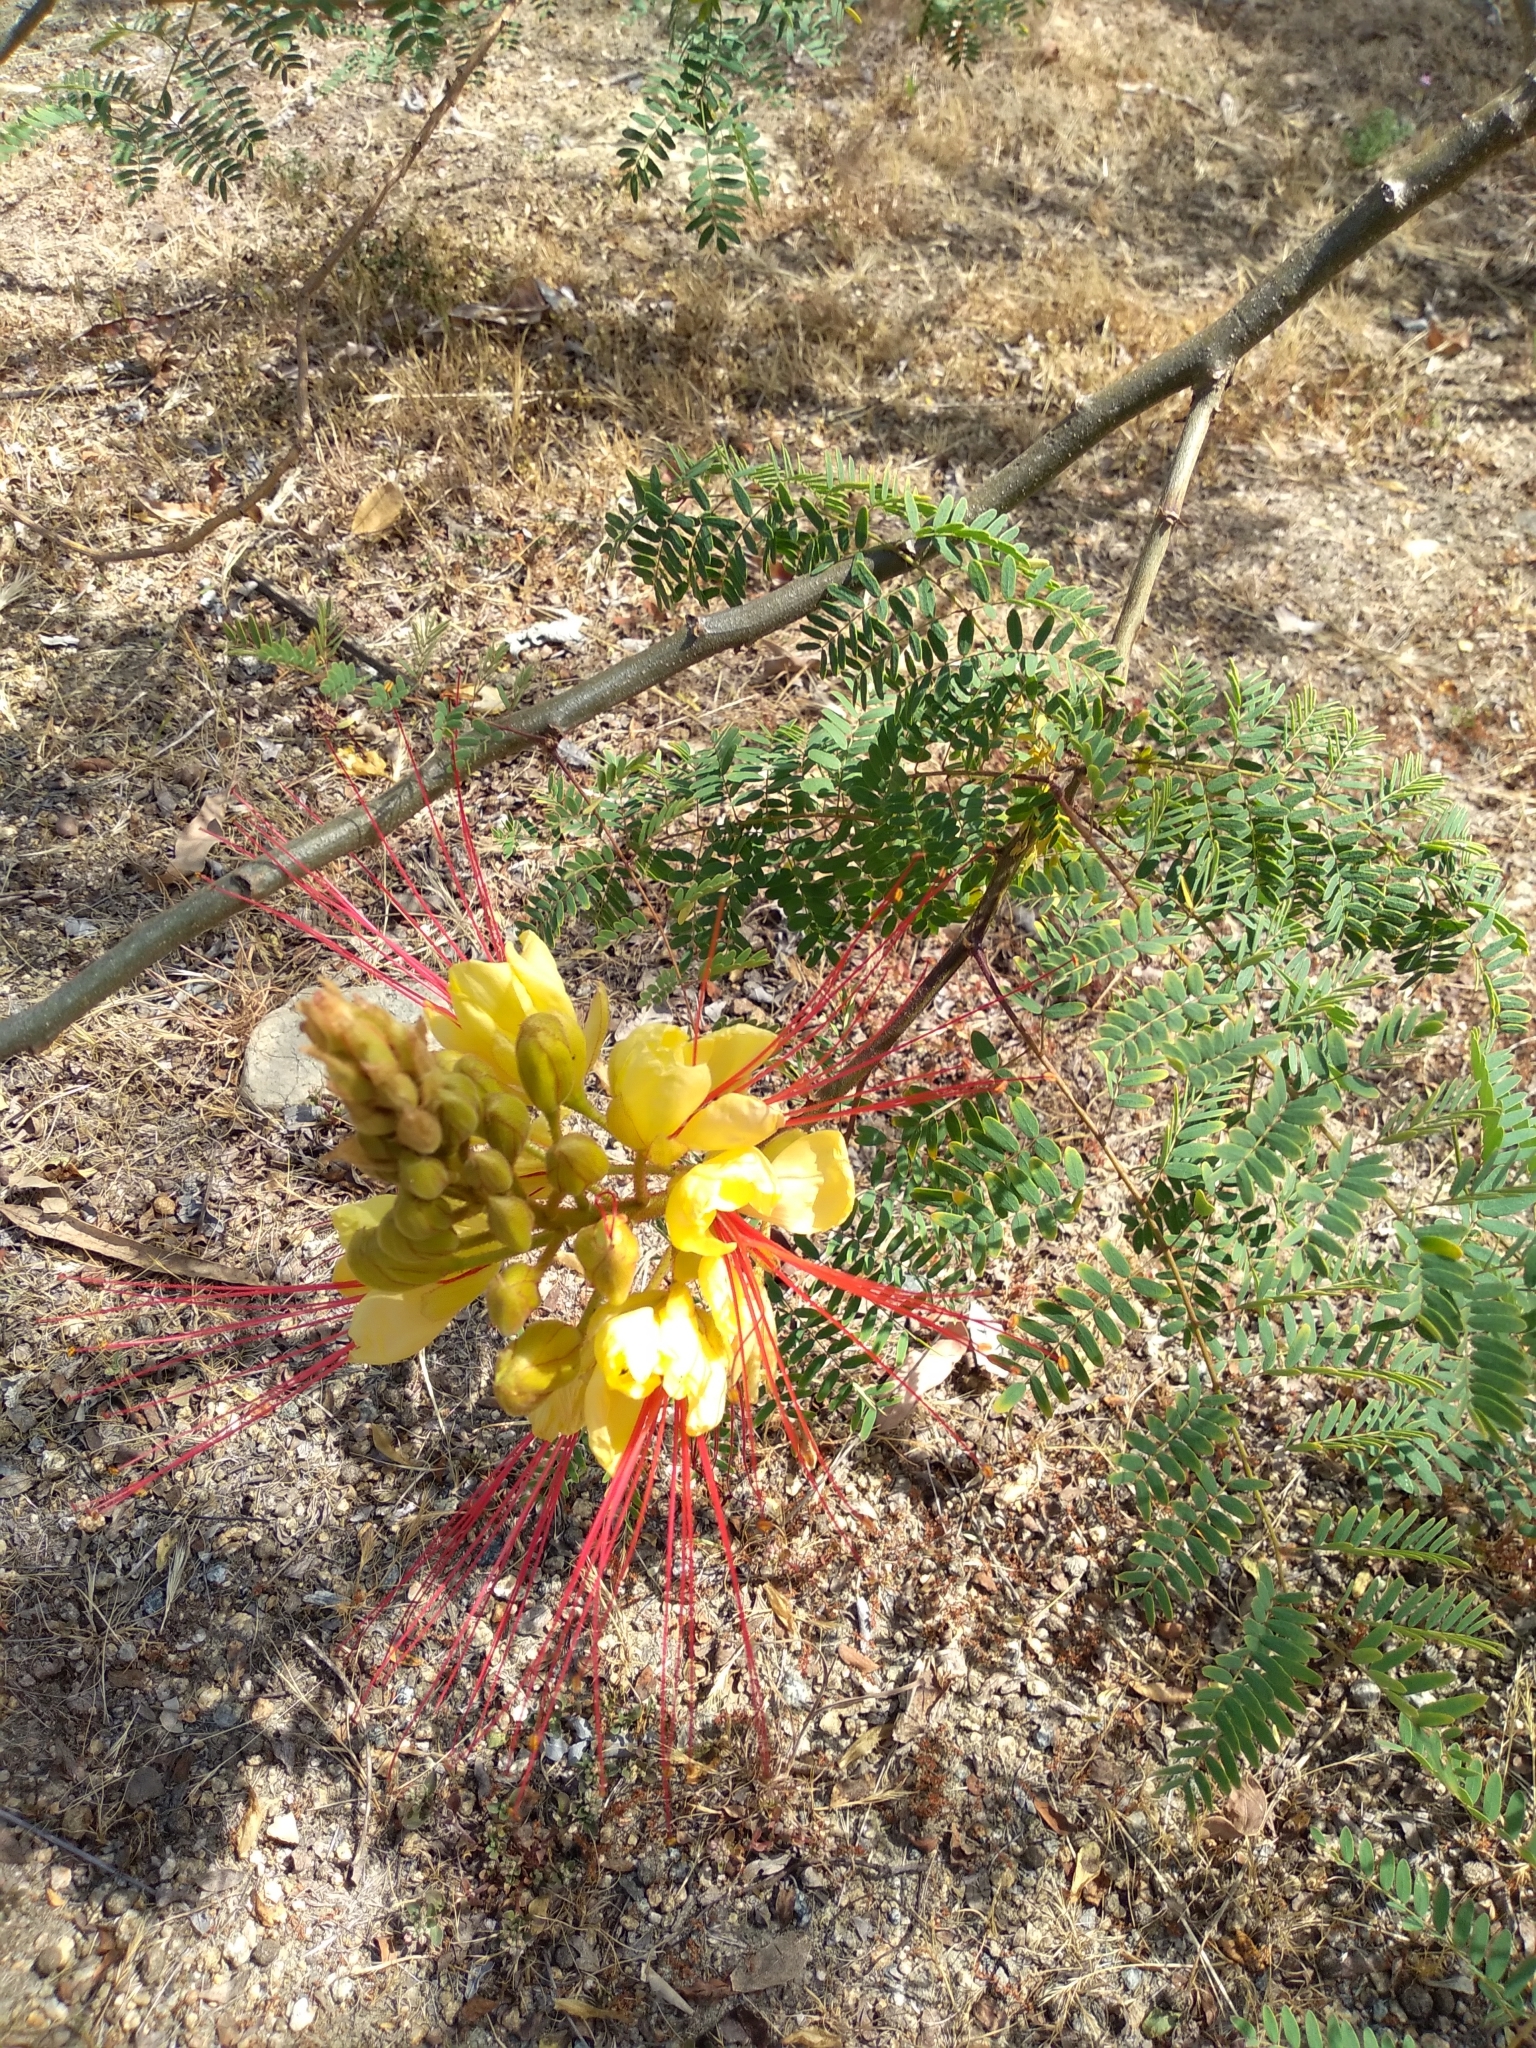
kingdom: Plantae
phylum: Tracheophyta
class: Magnoliopsida
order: Fabales
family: Fabaceae
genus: Erythrostemon
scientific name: Erythrostemon gilliesii
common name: Bird-of-paradise shrub
